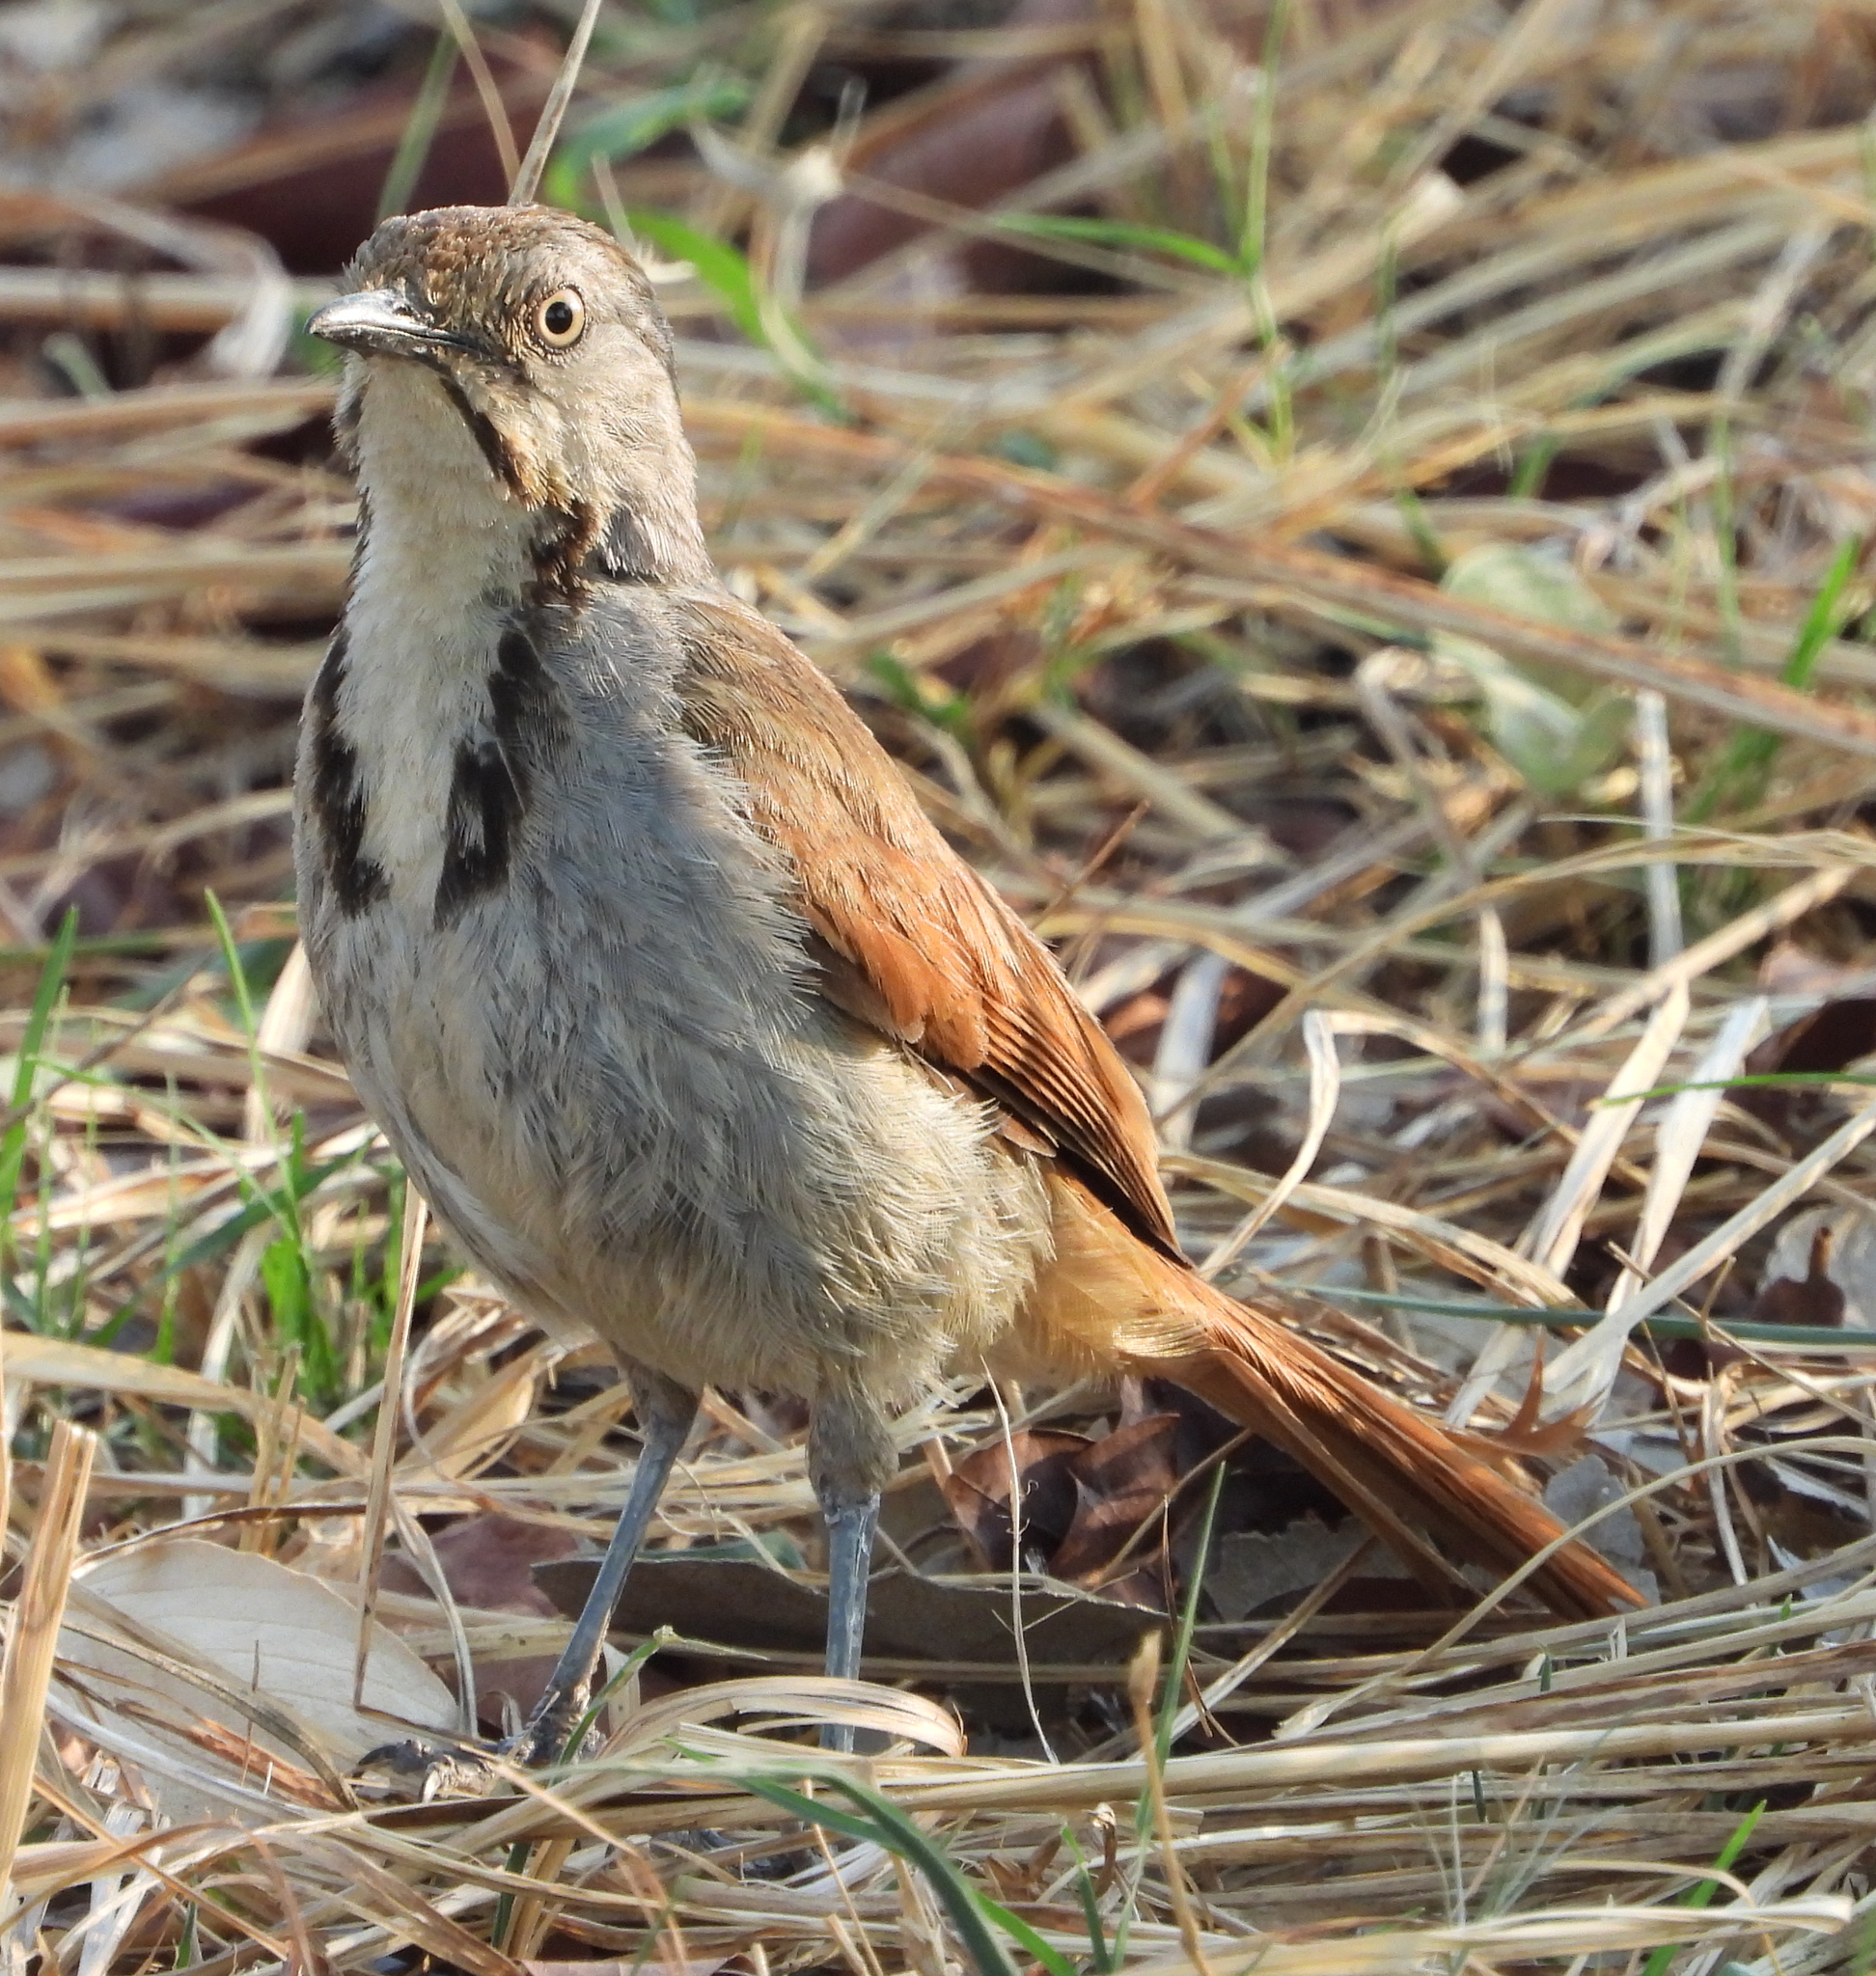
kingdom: Animalia
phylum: Chordata
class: Aves
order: Passeriformes
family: Muscicapidae
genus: Cichladusa
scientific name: Cichladusa arquata
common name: Collared palm thrush
